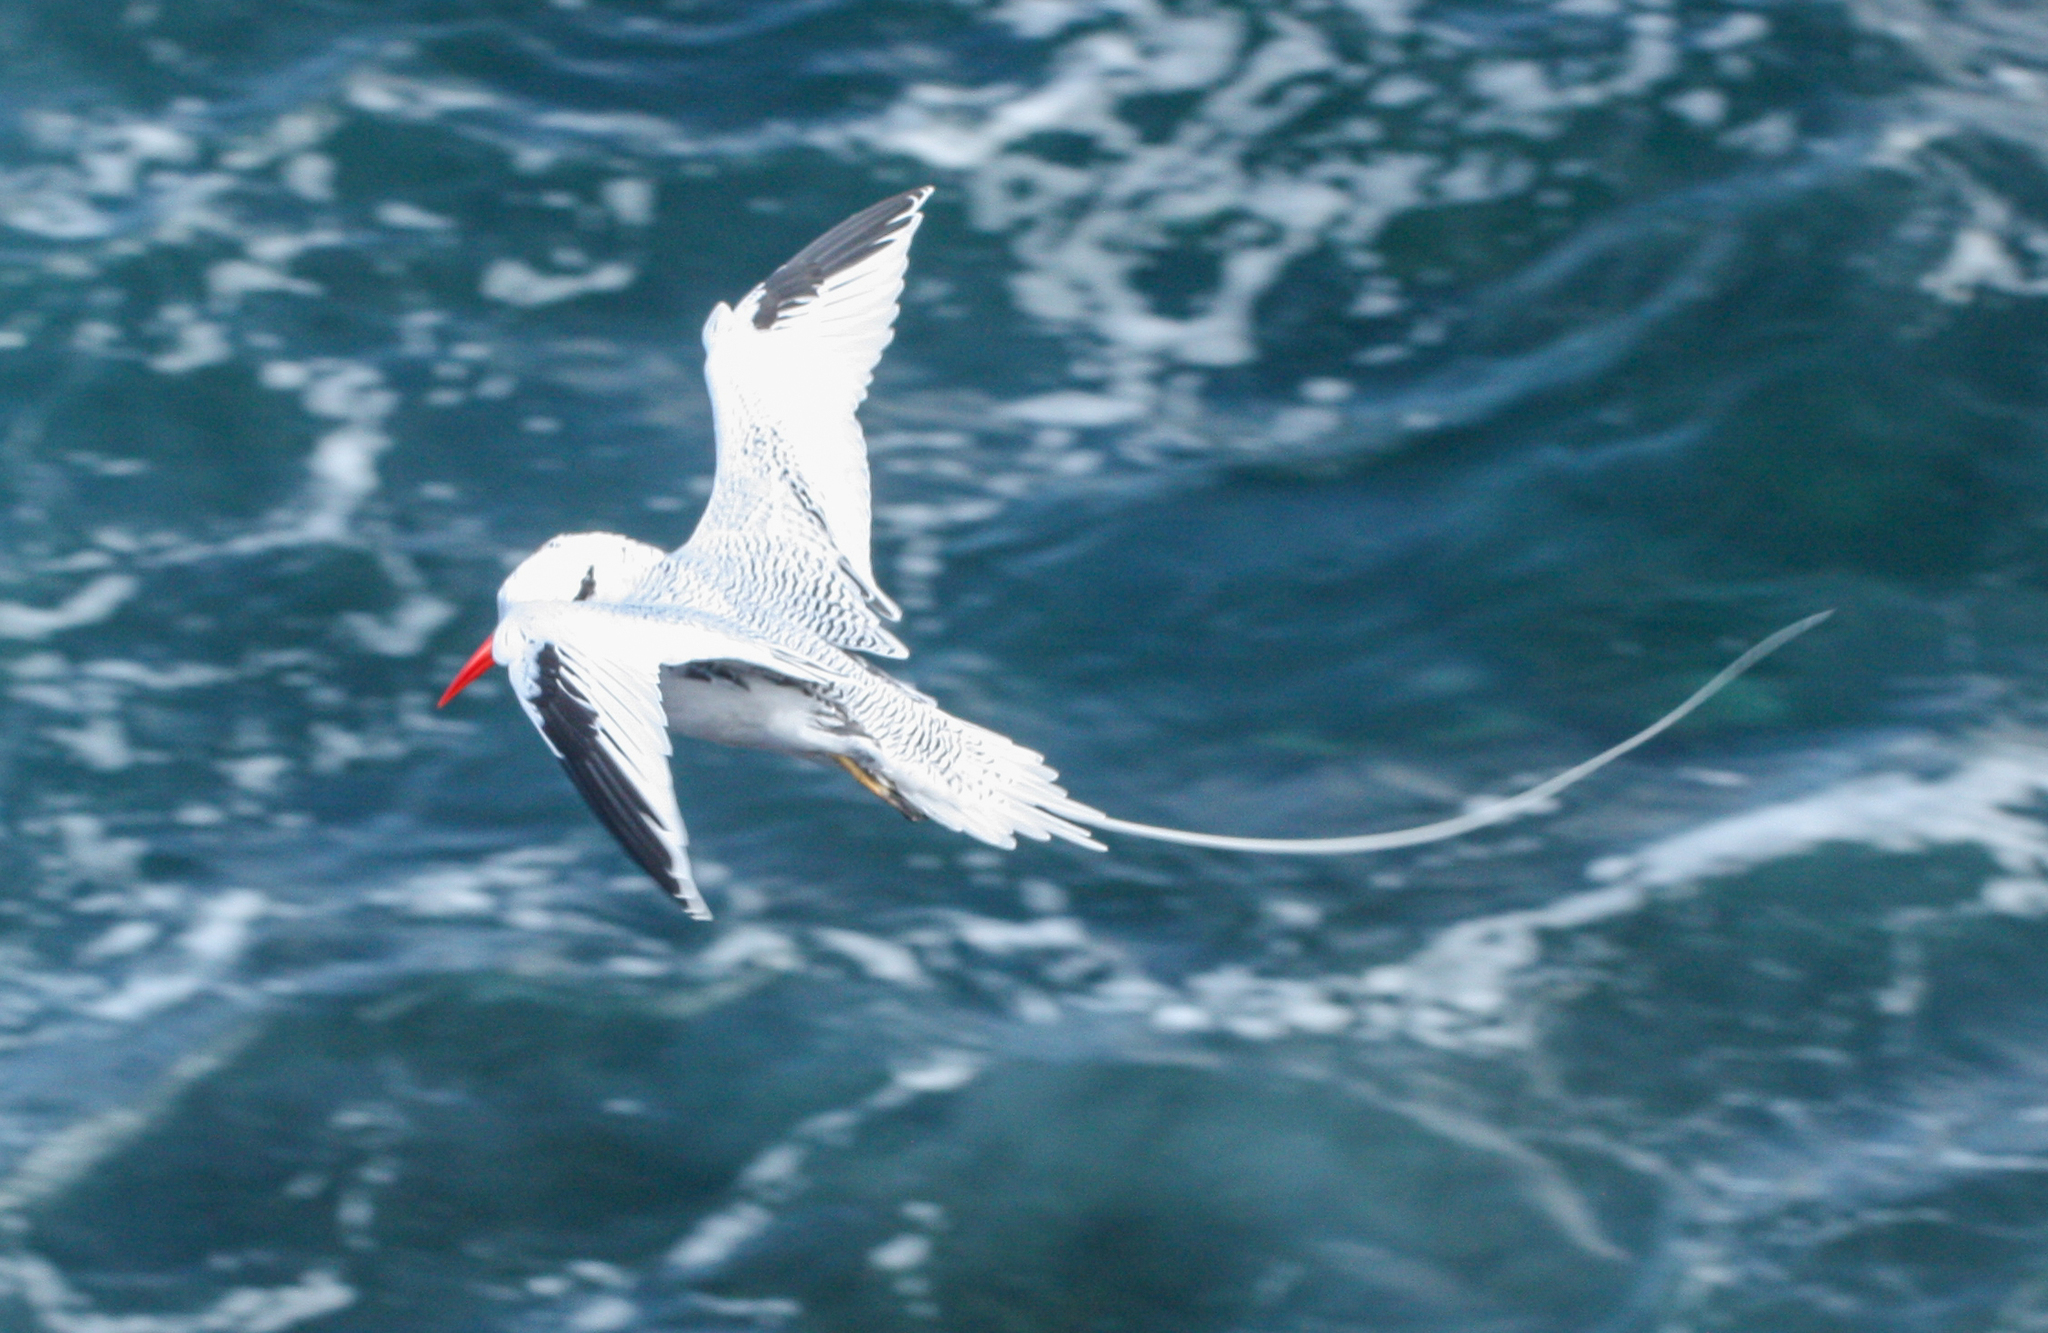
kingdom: Animalia
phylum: Chordata
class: Aves
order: Phaethontiformes
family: Phaethontidae
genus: Phaethon
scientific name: Phaethon aethereus
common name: Red-billed tropicbird
